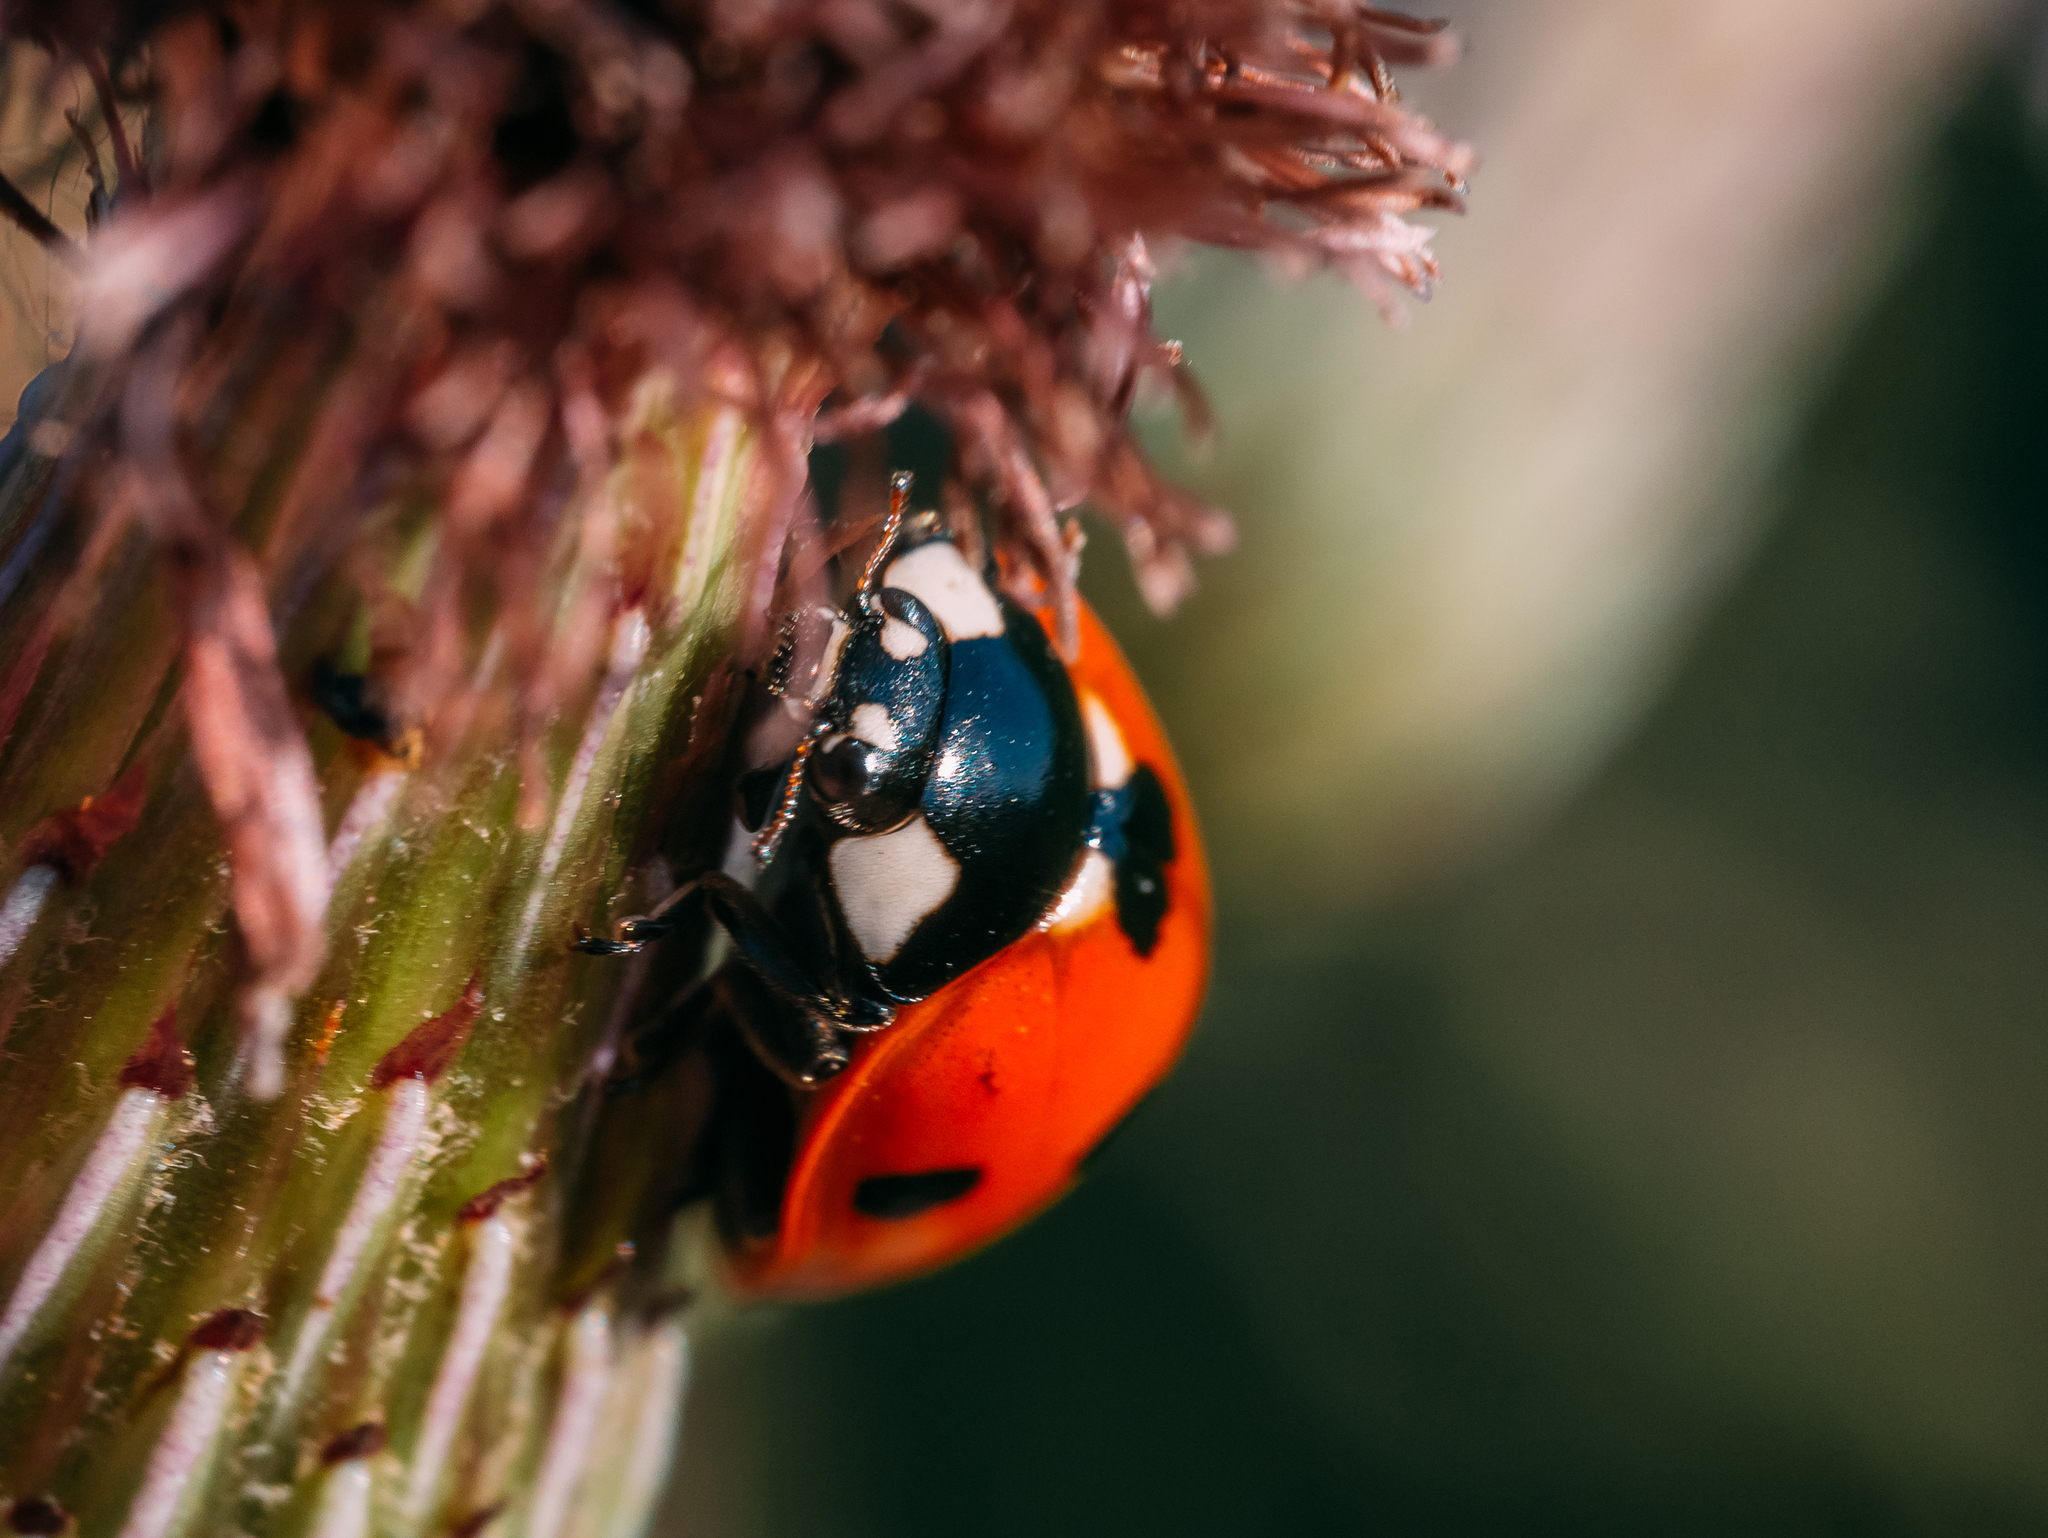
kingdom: Animalia
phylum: Arthropoda
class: Insecta
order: Coleoptera
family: Coccinellidae
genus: Coccinella
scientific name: Coccinella septempunctata
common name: Sevenspotted lady beetle
